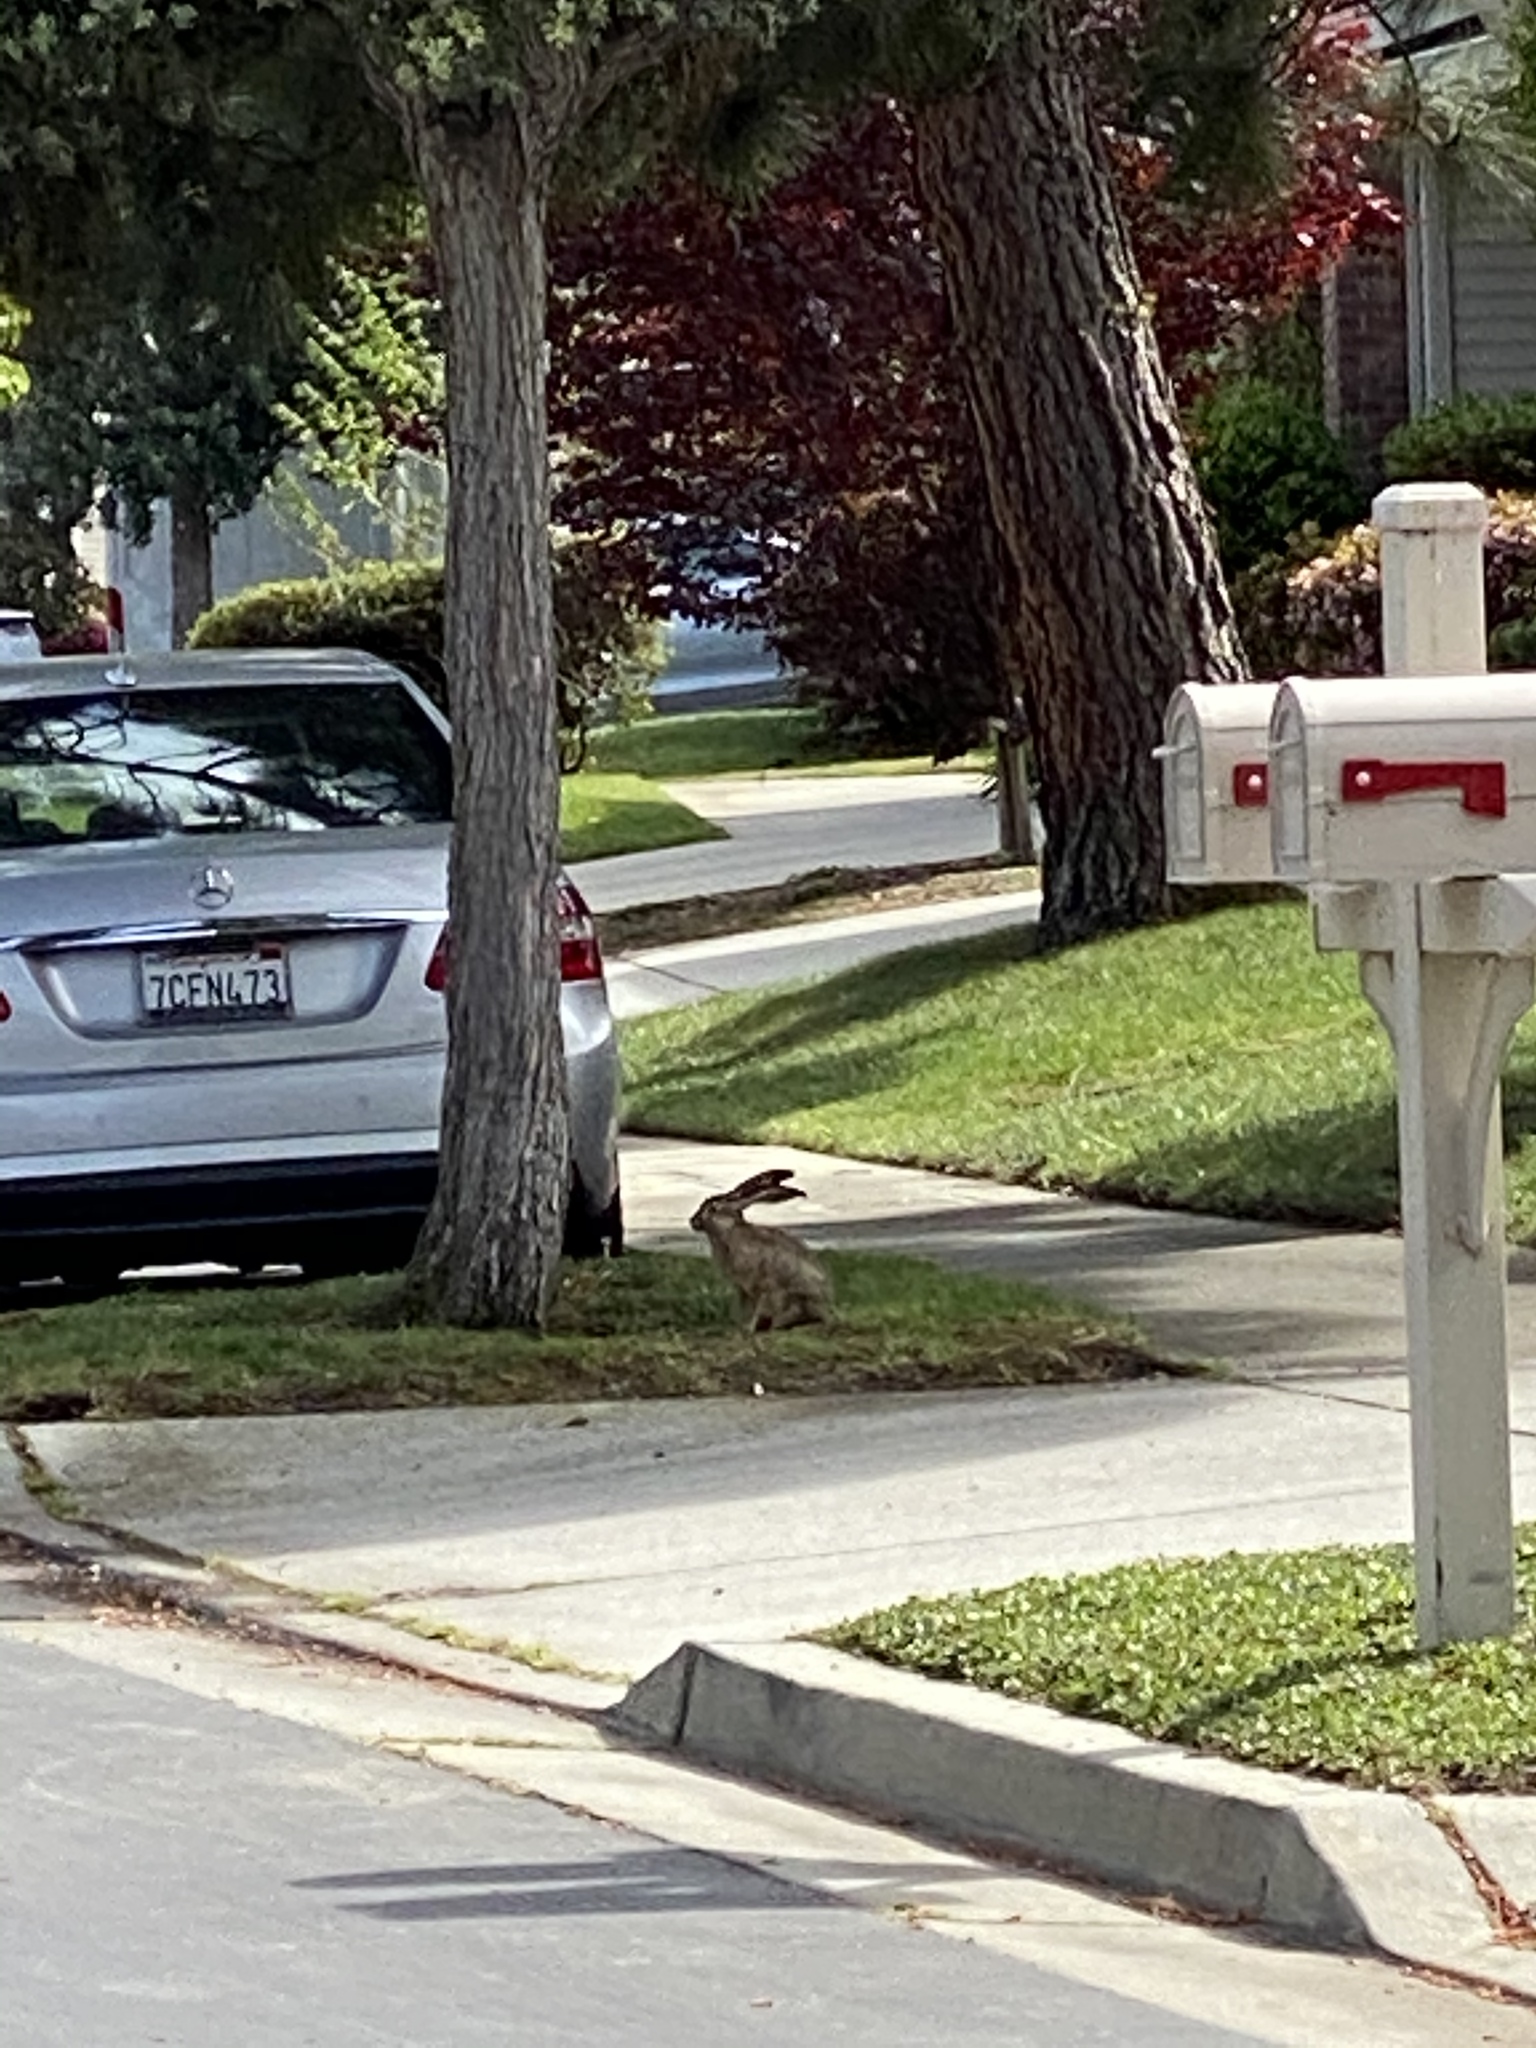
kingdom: Animalia
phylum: Chordata
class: Mammalia
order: Lagomorpha
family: Leporidae
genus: Lepus
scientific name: Lepus californicus
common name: Black-tailed jackrabbit
